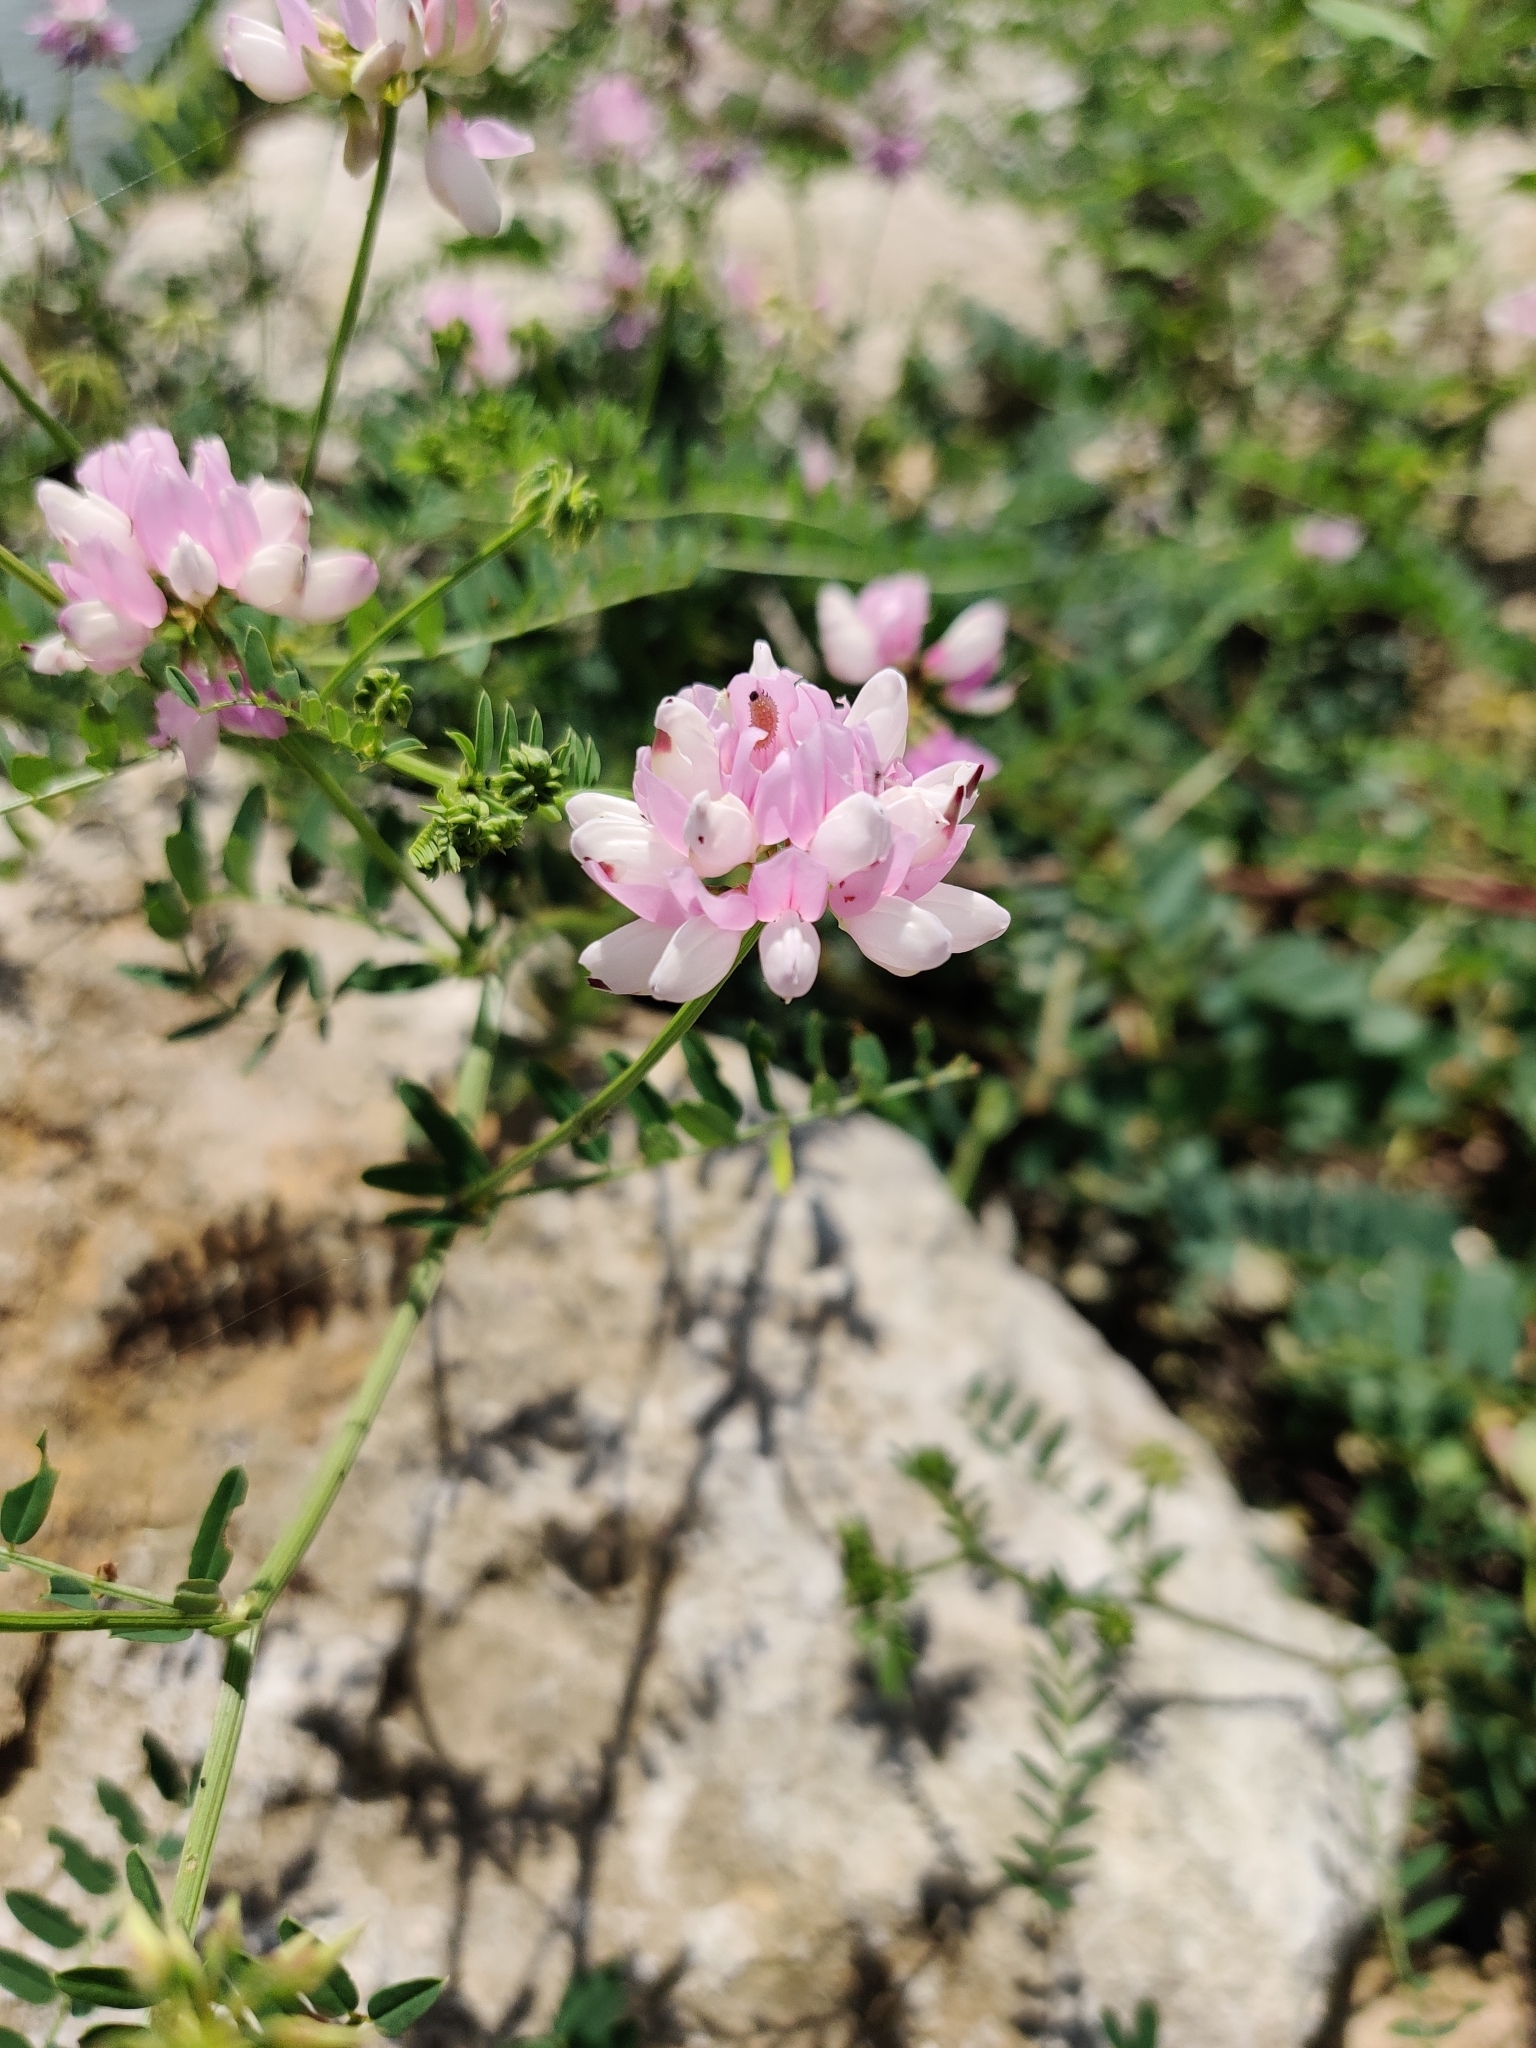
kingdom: Plantae
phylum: Tracheophyta
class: Magnoliopsida
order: Fabales
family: Fabaceae
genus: Coronilla
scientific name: Coronilla varia
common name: Crownvetch
